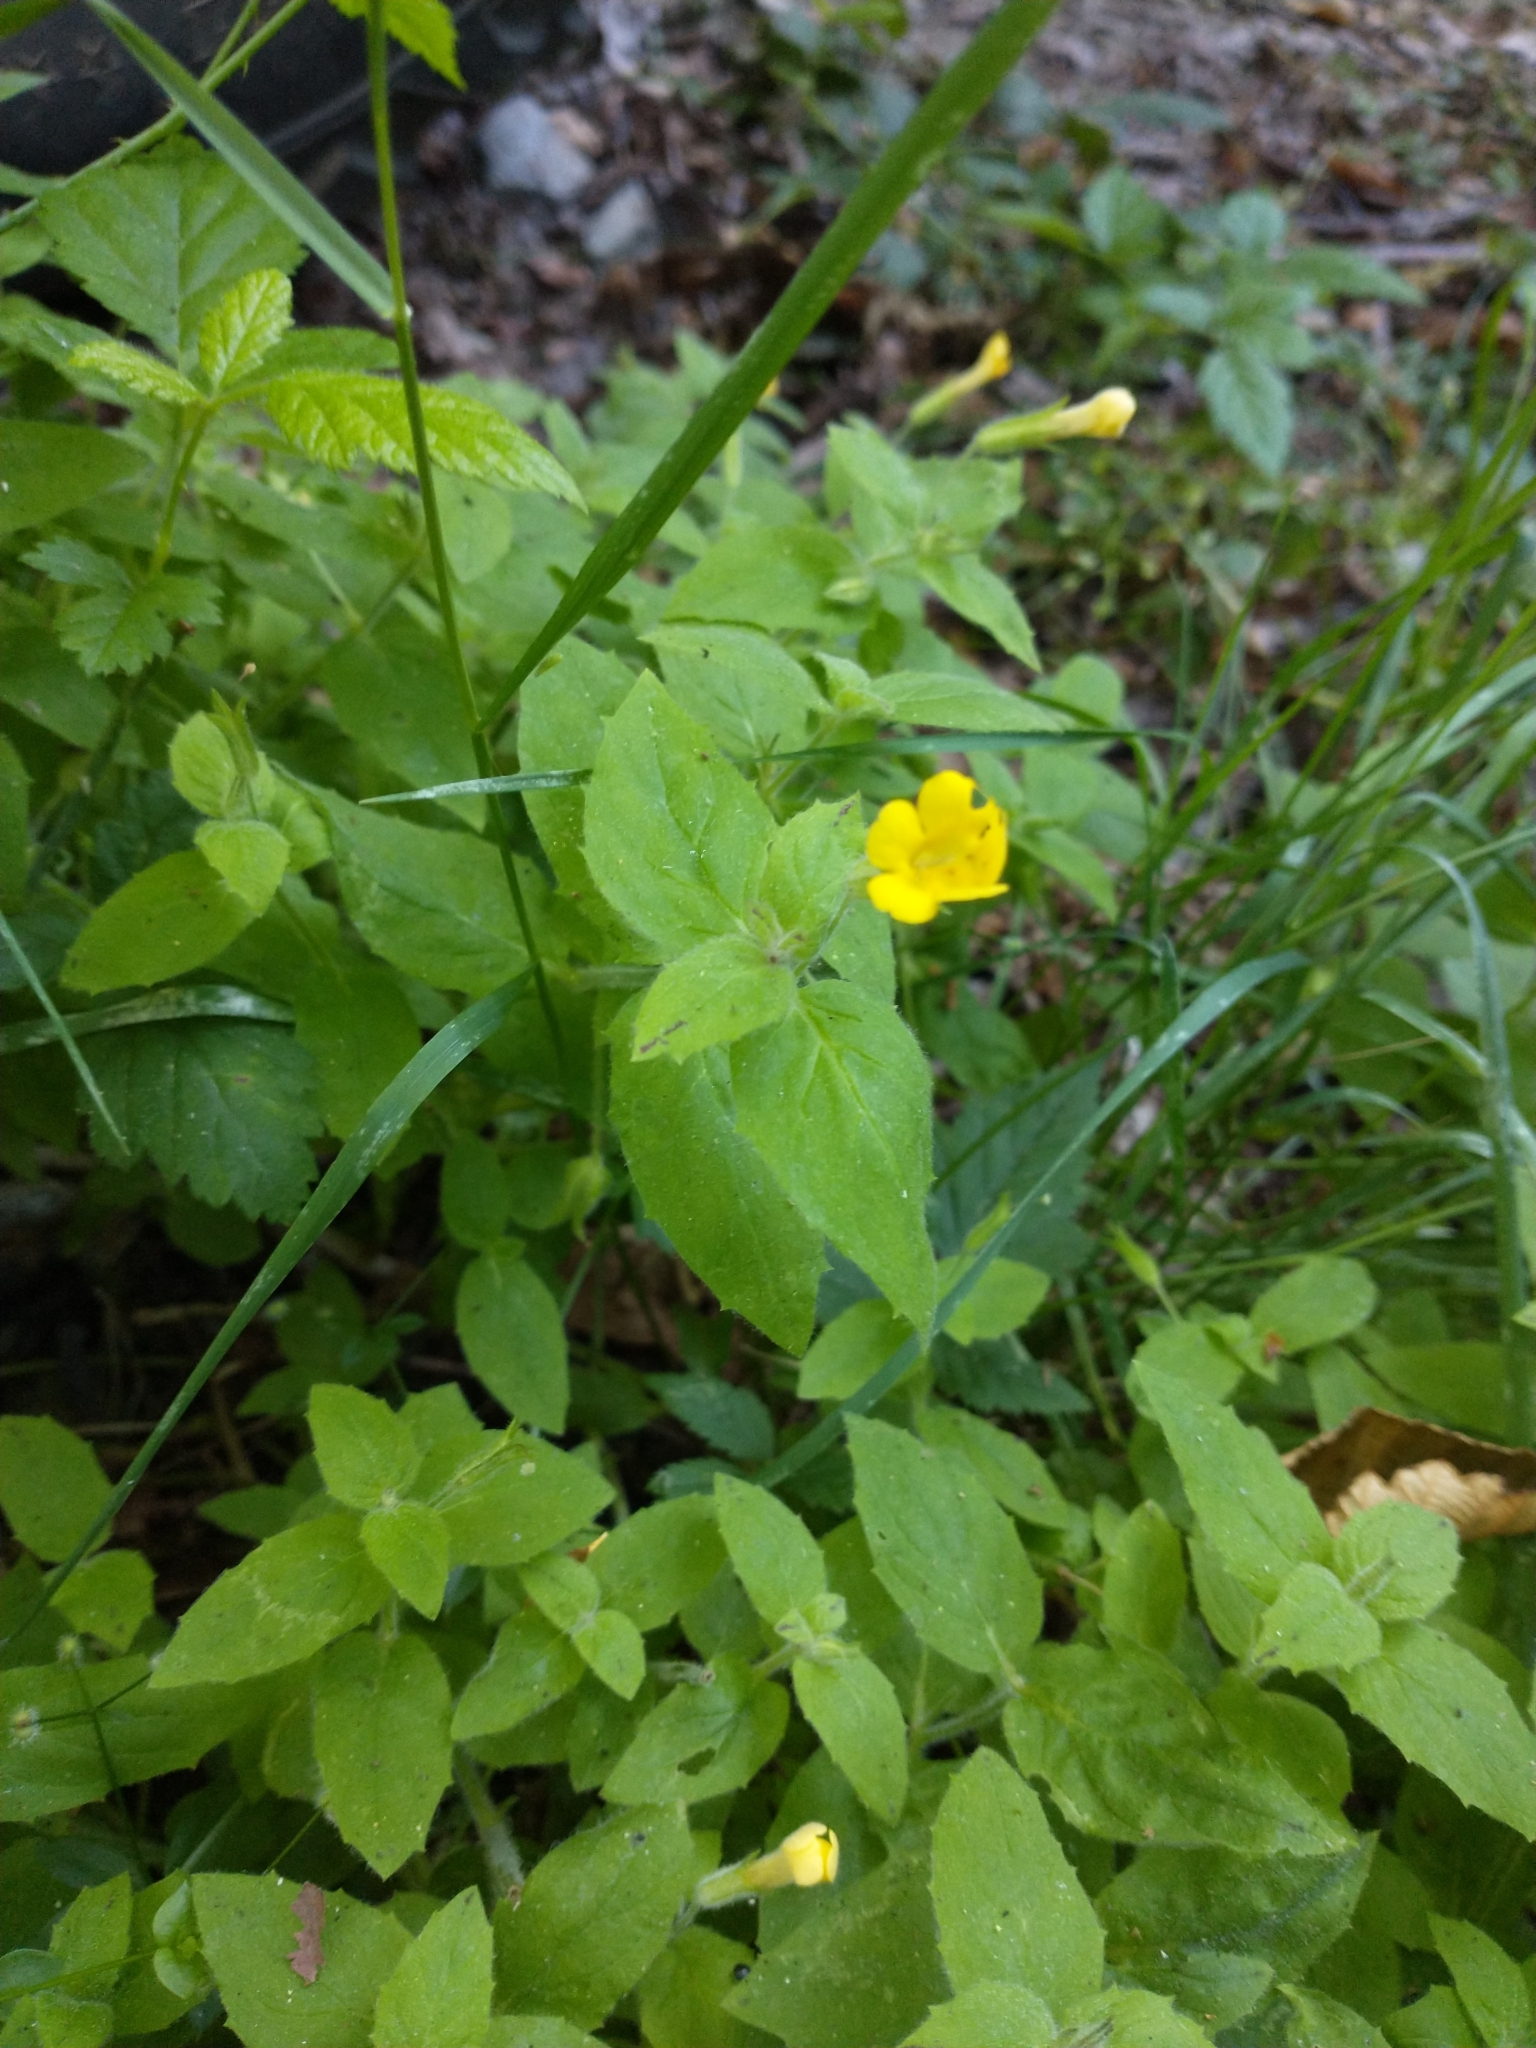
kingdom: Plantae
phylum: Tracheophyta
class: Magnoliopsida
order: Lamiales
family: Phrymaceae
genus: Erythranthe
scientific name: Erythranthe ptilota
